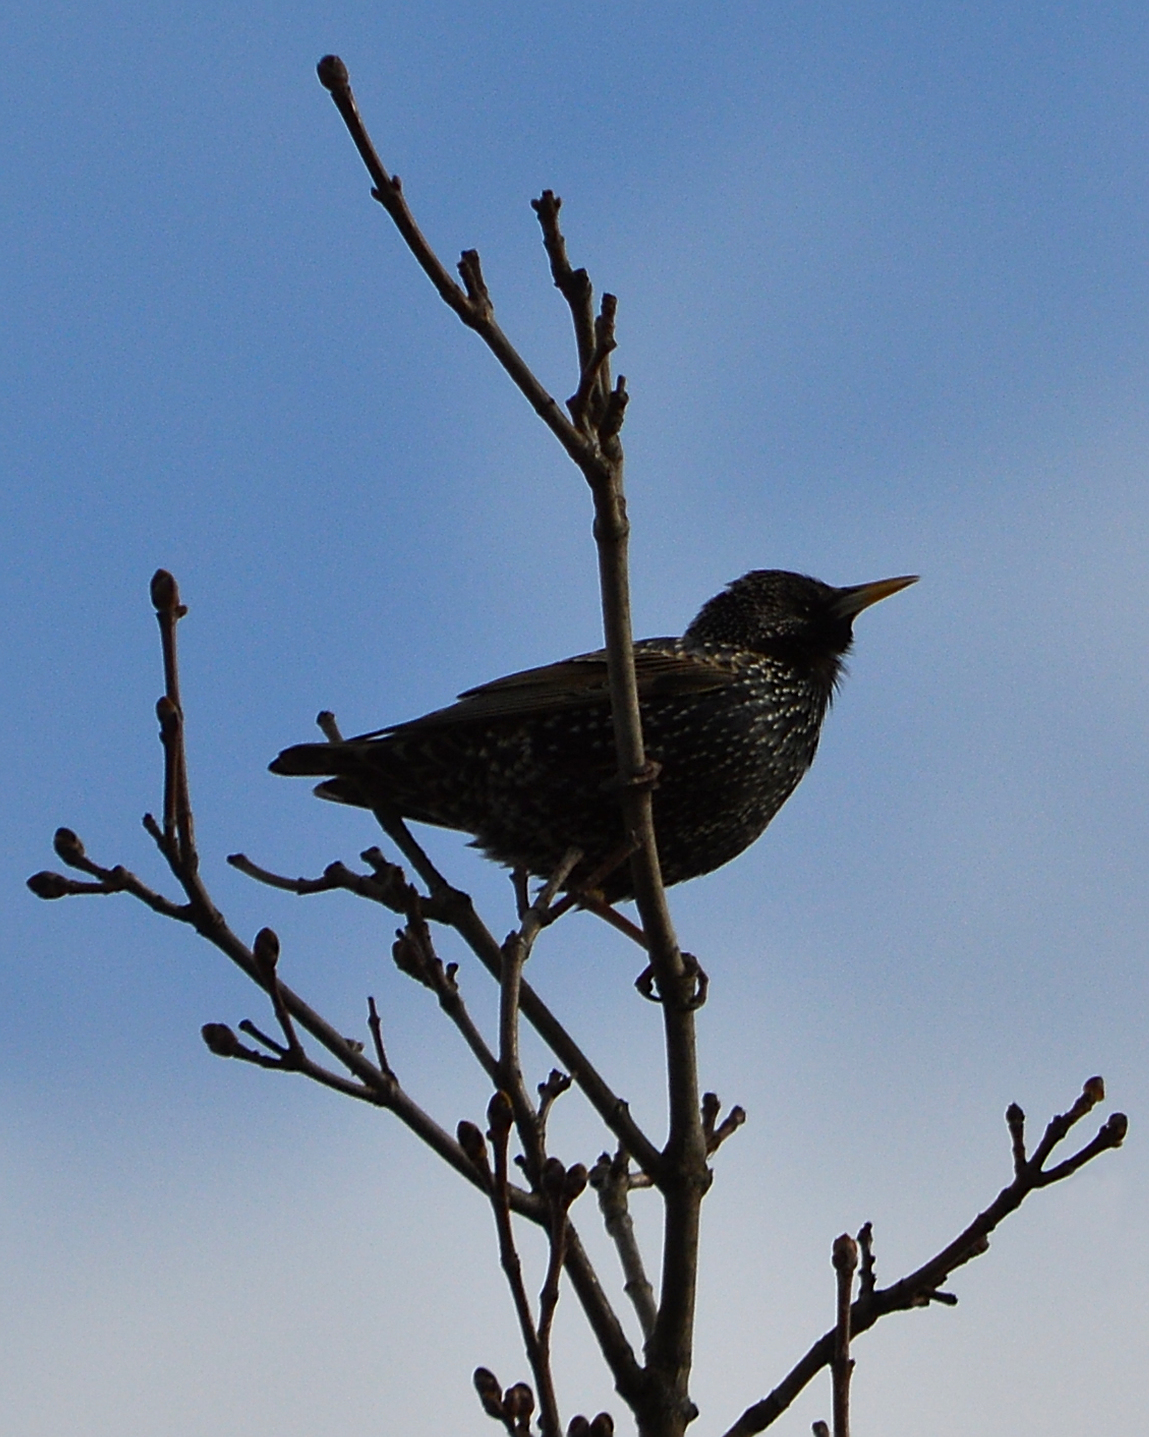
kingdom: Animalia
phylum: Chordata
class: Aves
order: Passeriformes
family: Sturnidae
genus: Sturnus
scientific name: Sturnus vulgaris
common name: Common starling
